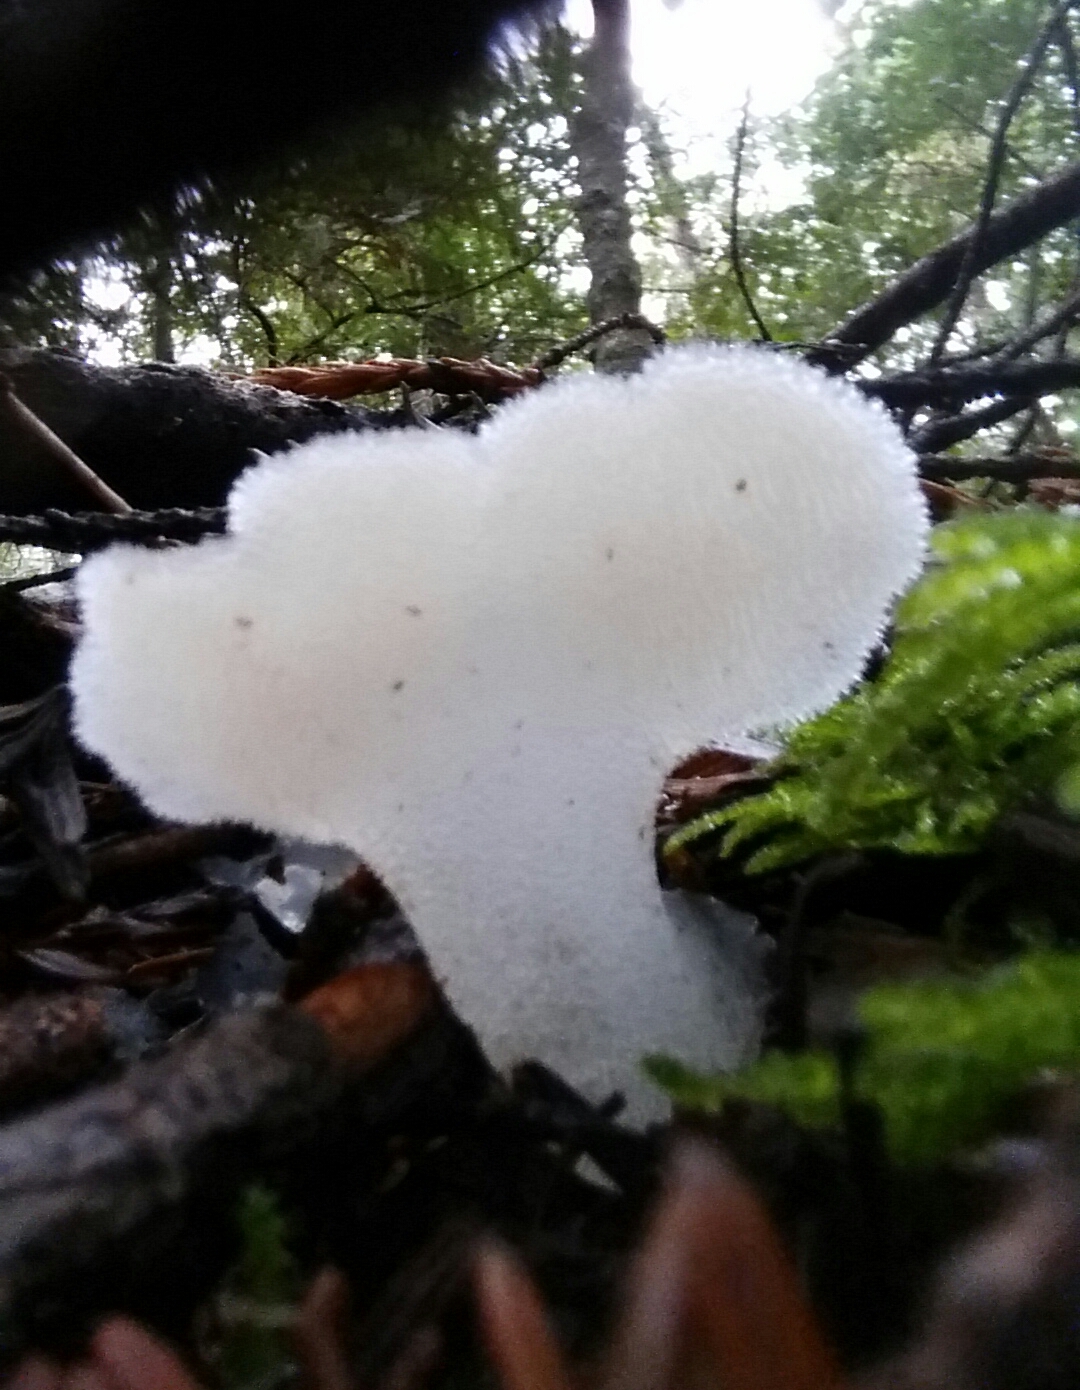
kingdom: Fungi
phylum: Basidiomycota
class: Agaricomycetes
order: Auriculariales
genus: Pseudohydnum
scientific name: Pseudohydnum gelatinosum
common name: Jelly tongue
